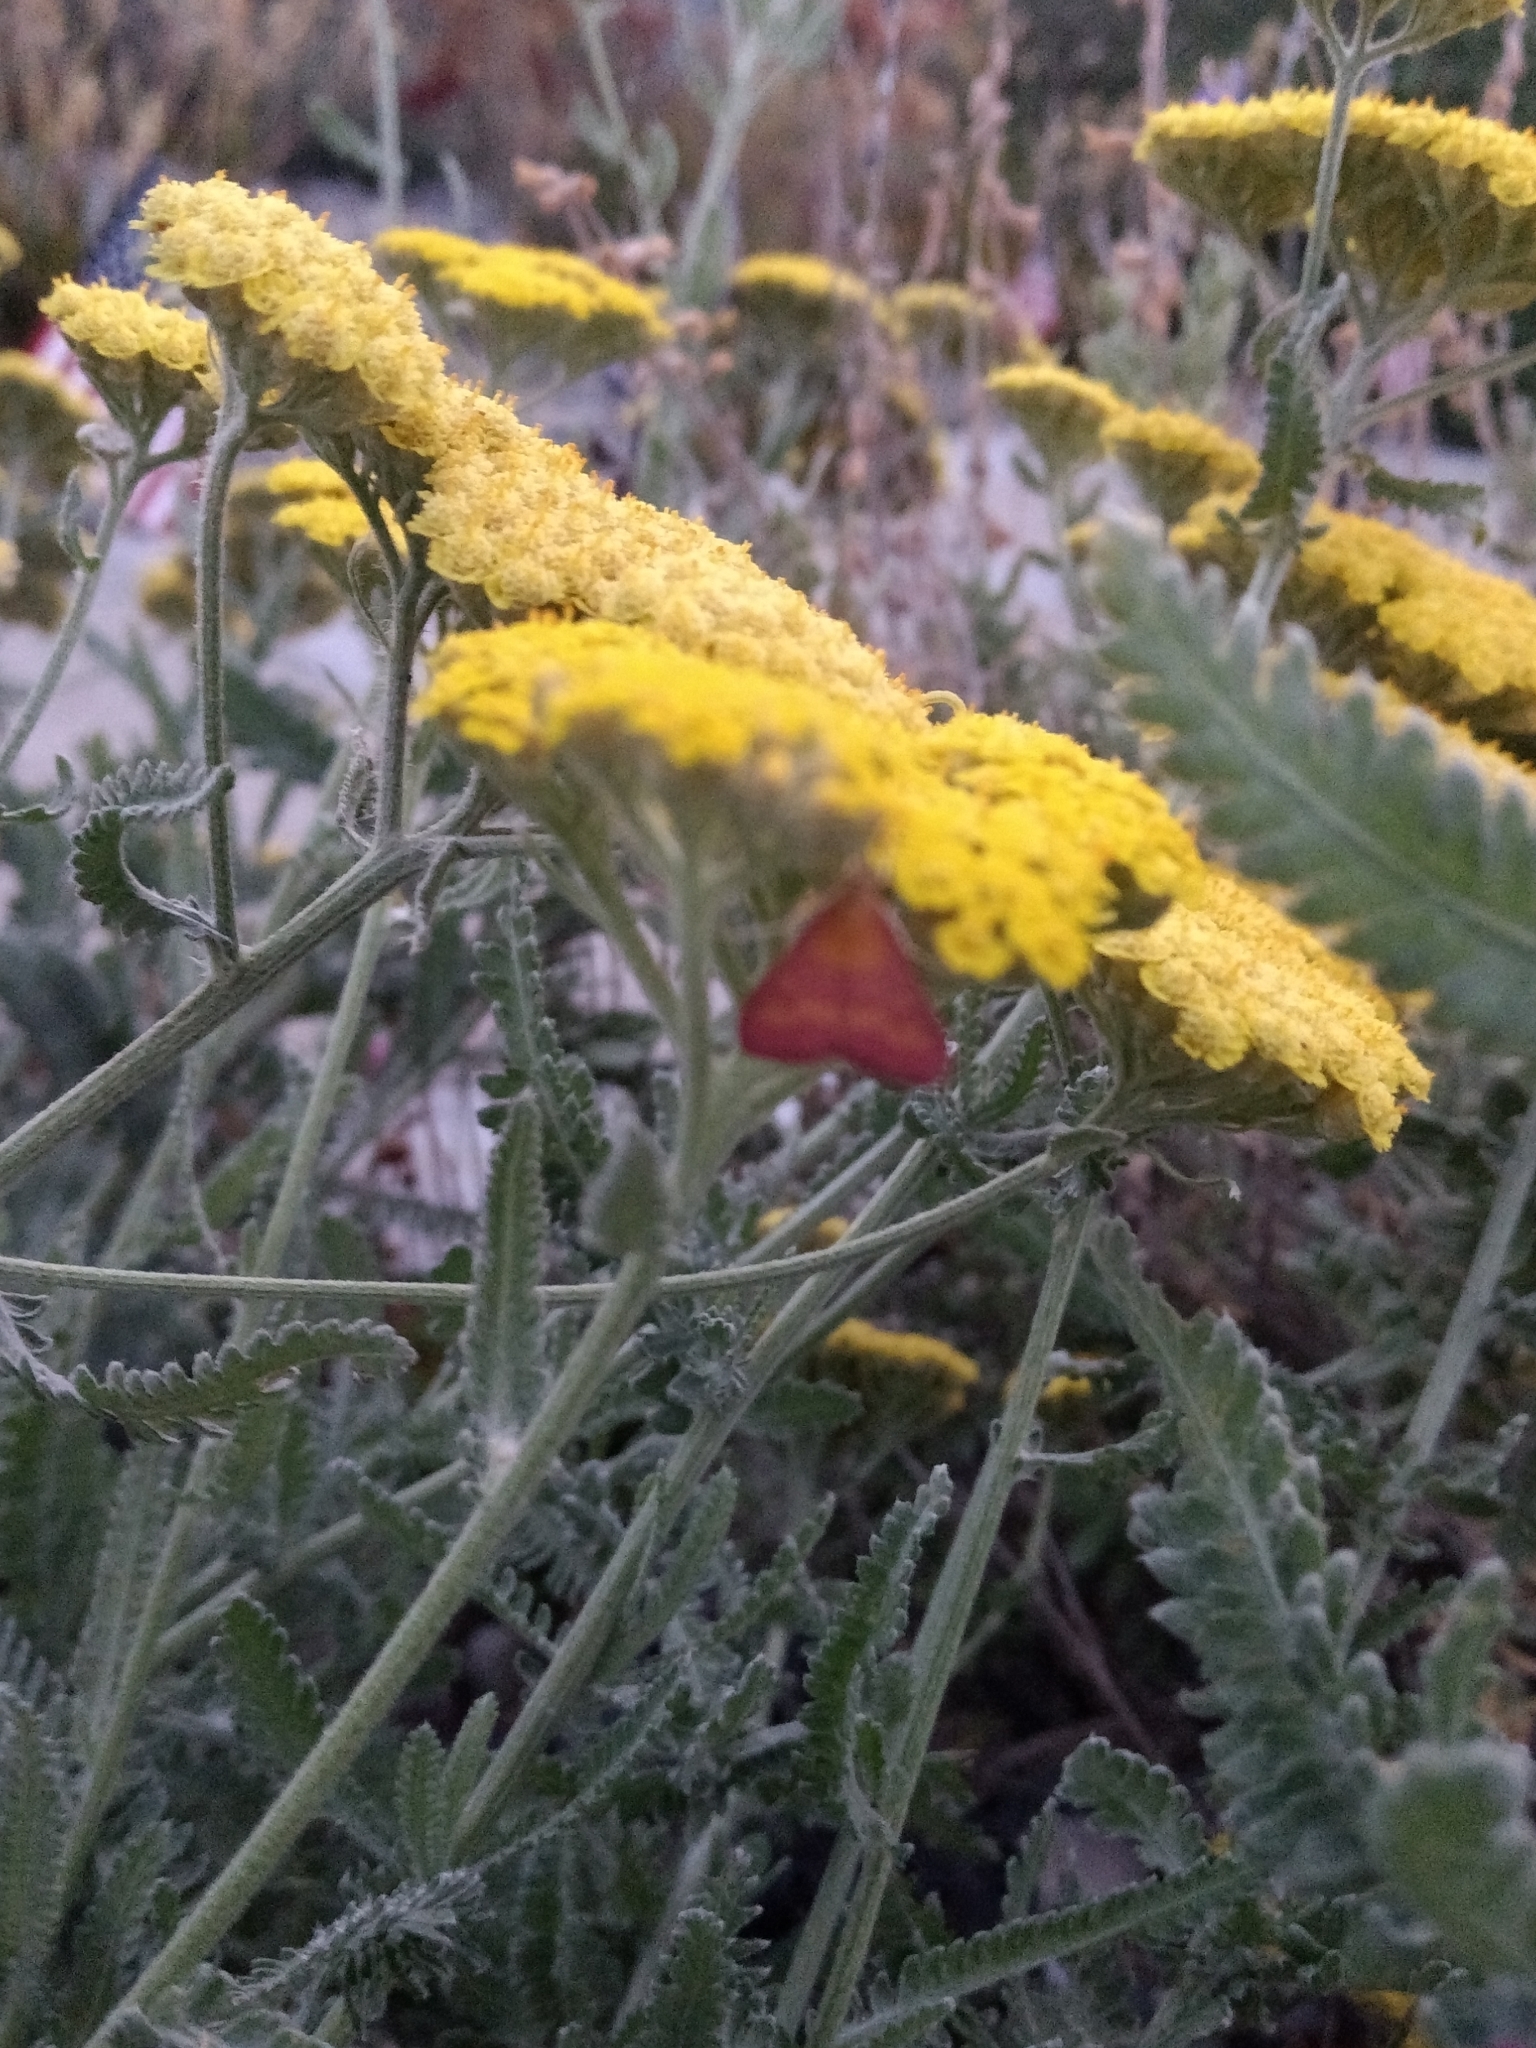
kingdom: Animalia
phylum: Arthropoda
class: Insecta
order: Lepidoptera
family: Crambidae
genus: Pyrausta
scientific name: Pyrausta laticlavia
